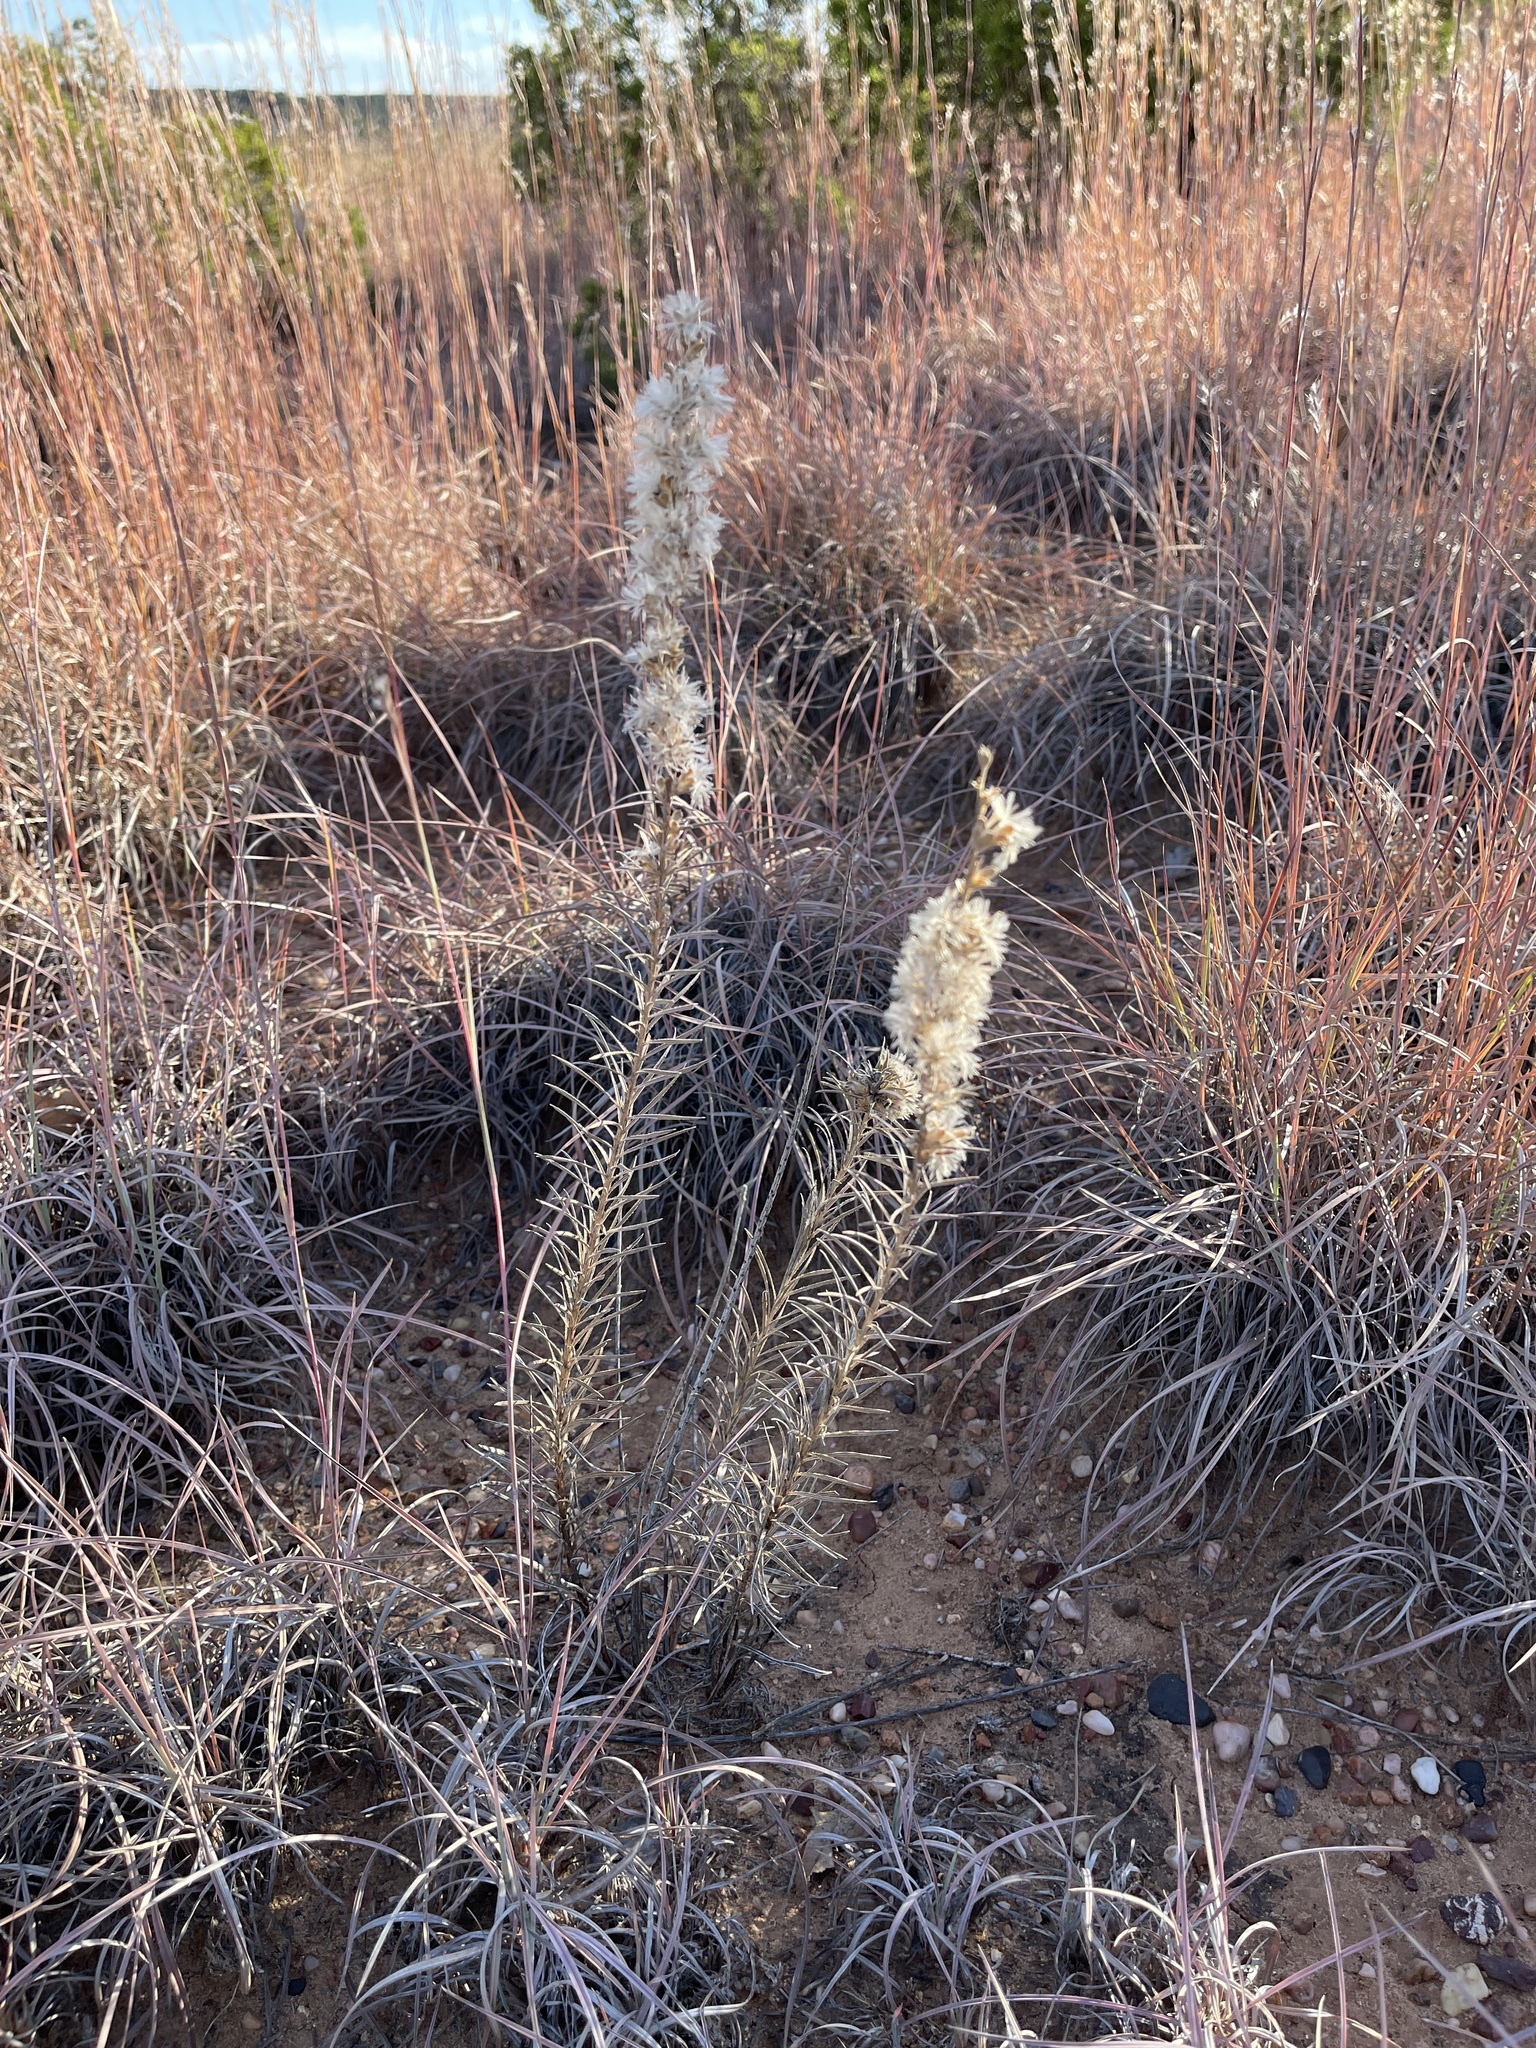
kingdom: Plantae
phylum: Tracheophyta
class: Magnoliopsida
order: Asterales
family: Asteraceae
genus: Liatris
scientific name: Liatris punctata
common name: Dotted gayfeather
